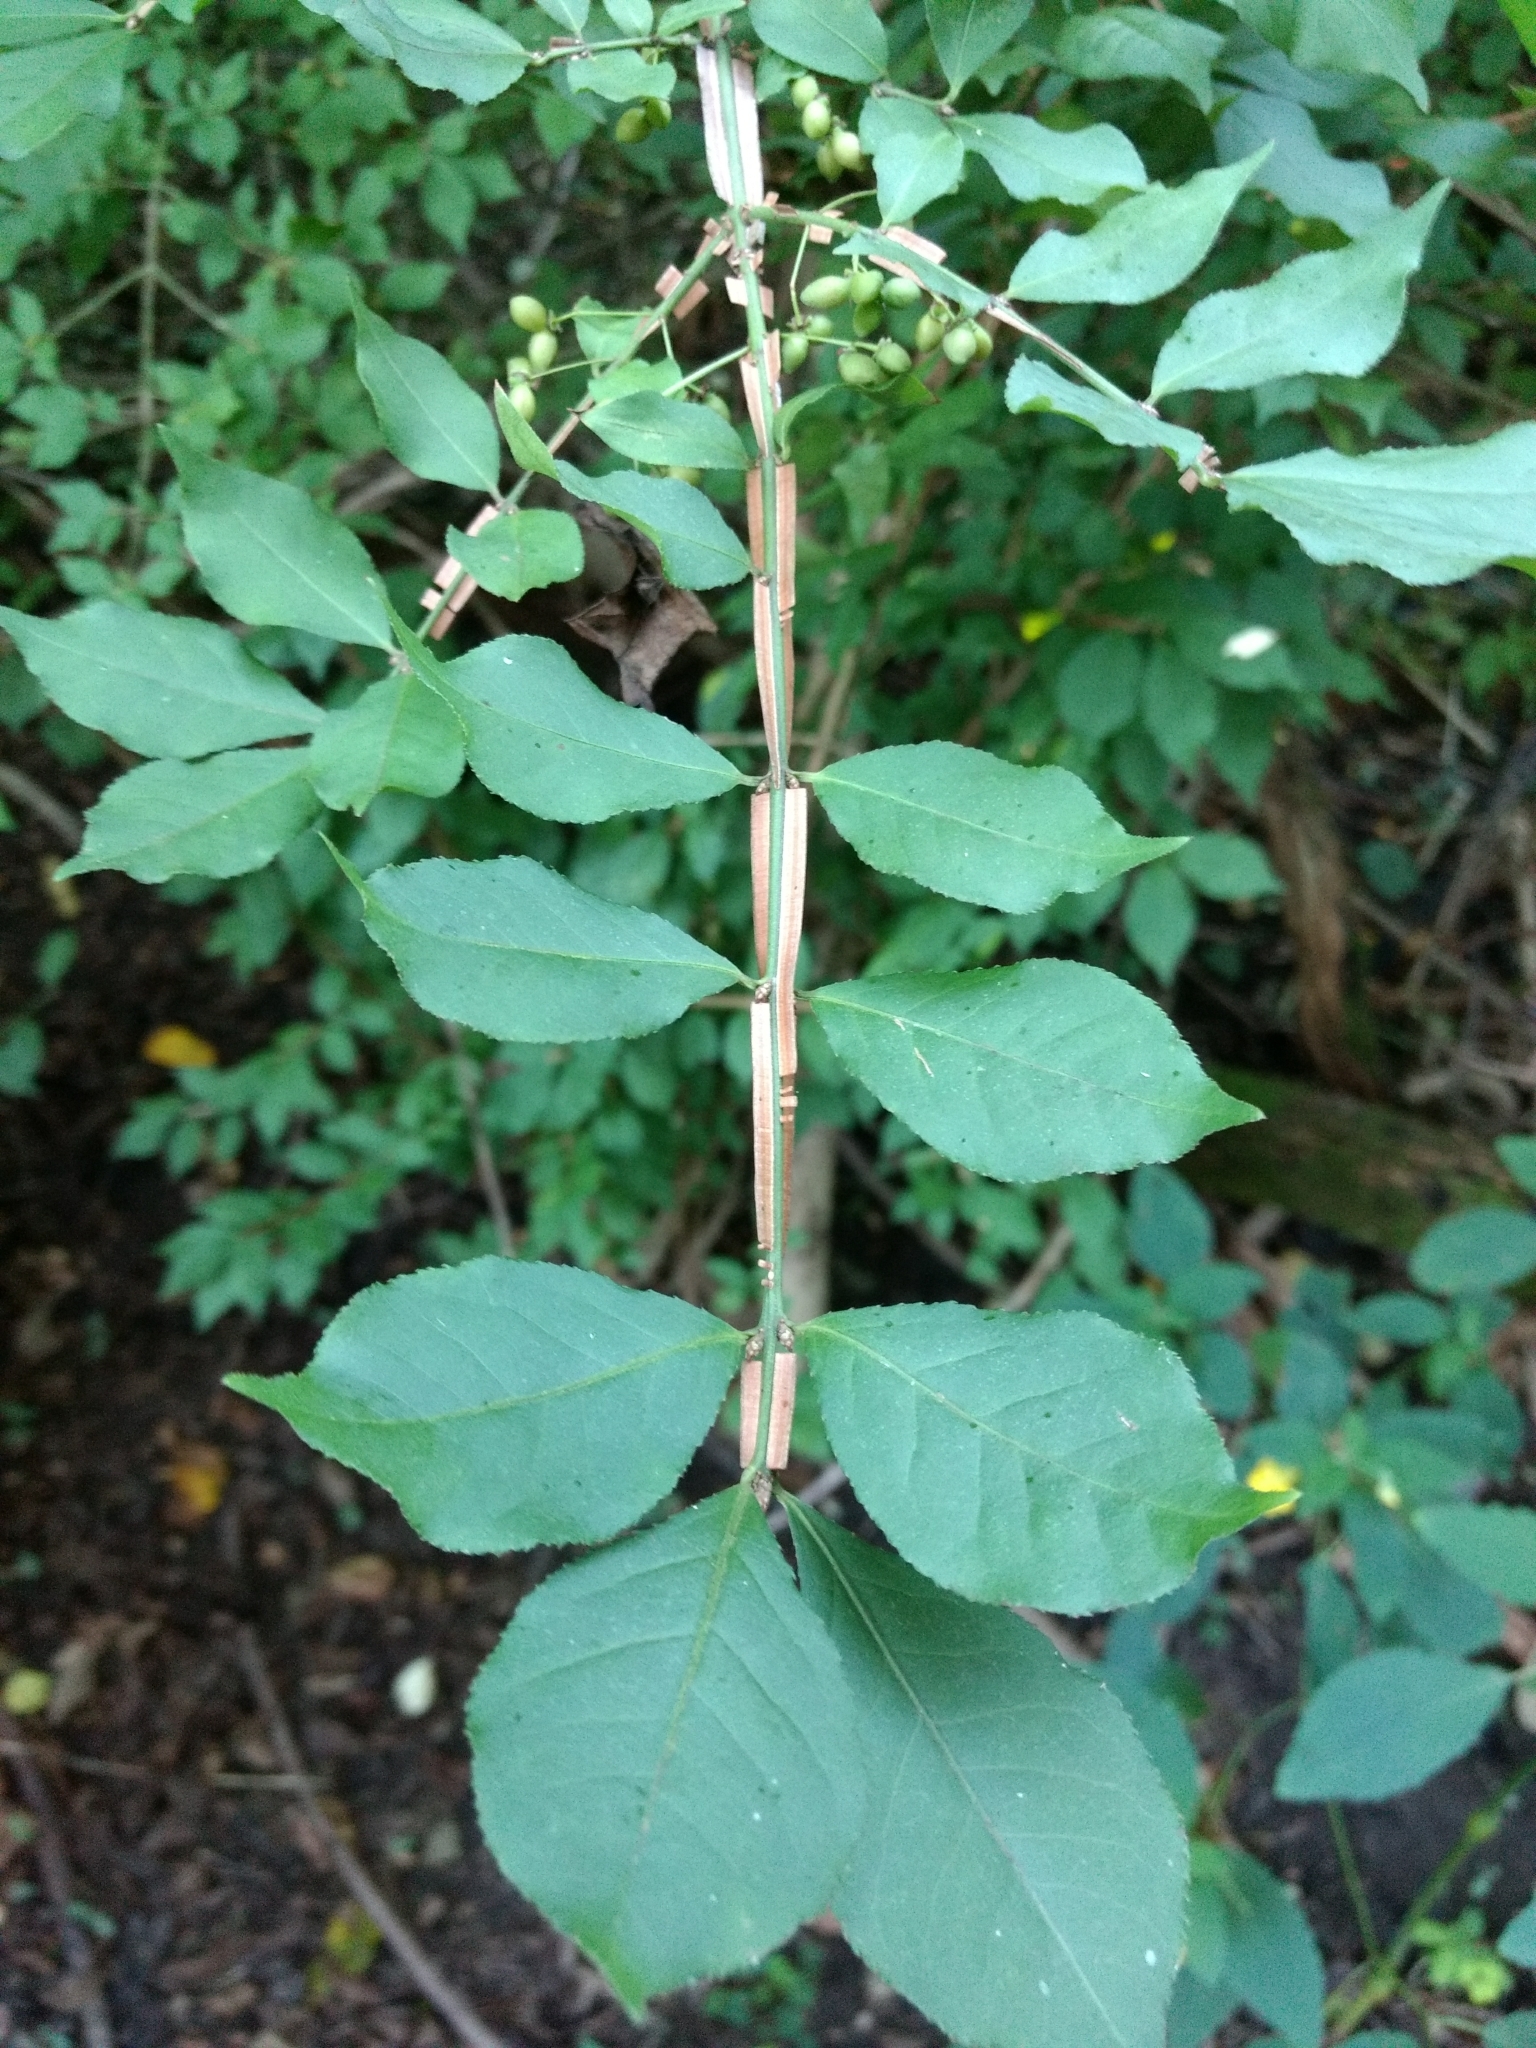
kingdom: Plantae
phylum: Tracheophyta
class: Magnoliopsida
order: Celastrales
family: Celastraceae
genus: Euonymus
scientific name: Euonymus alatus
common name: Winged euonymus
